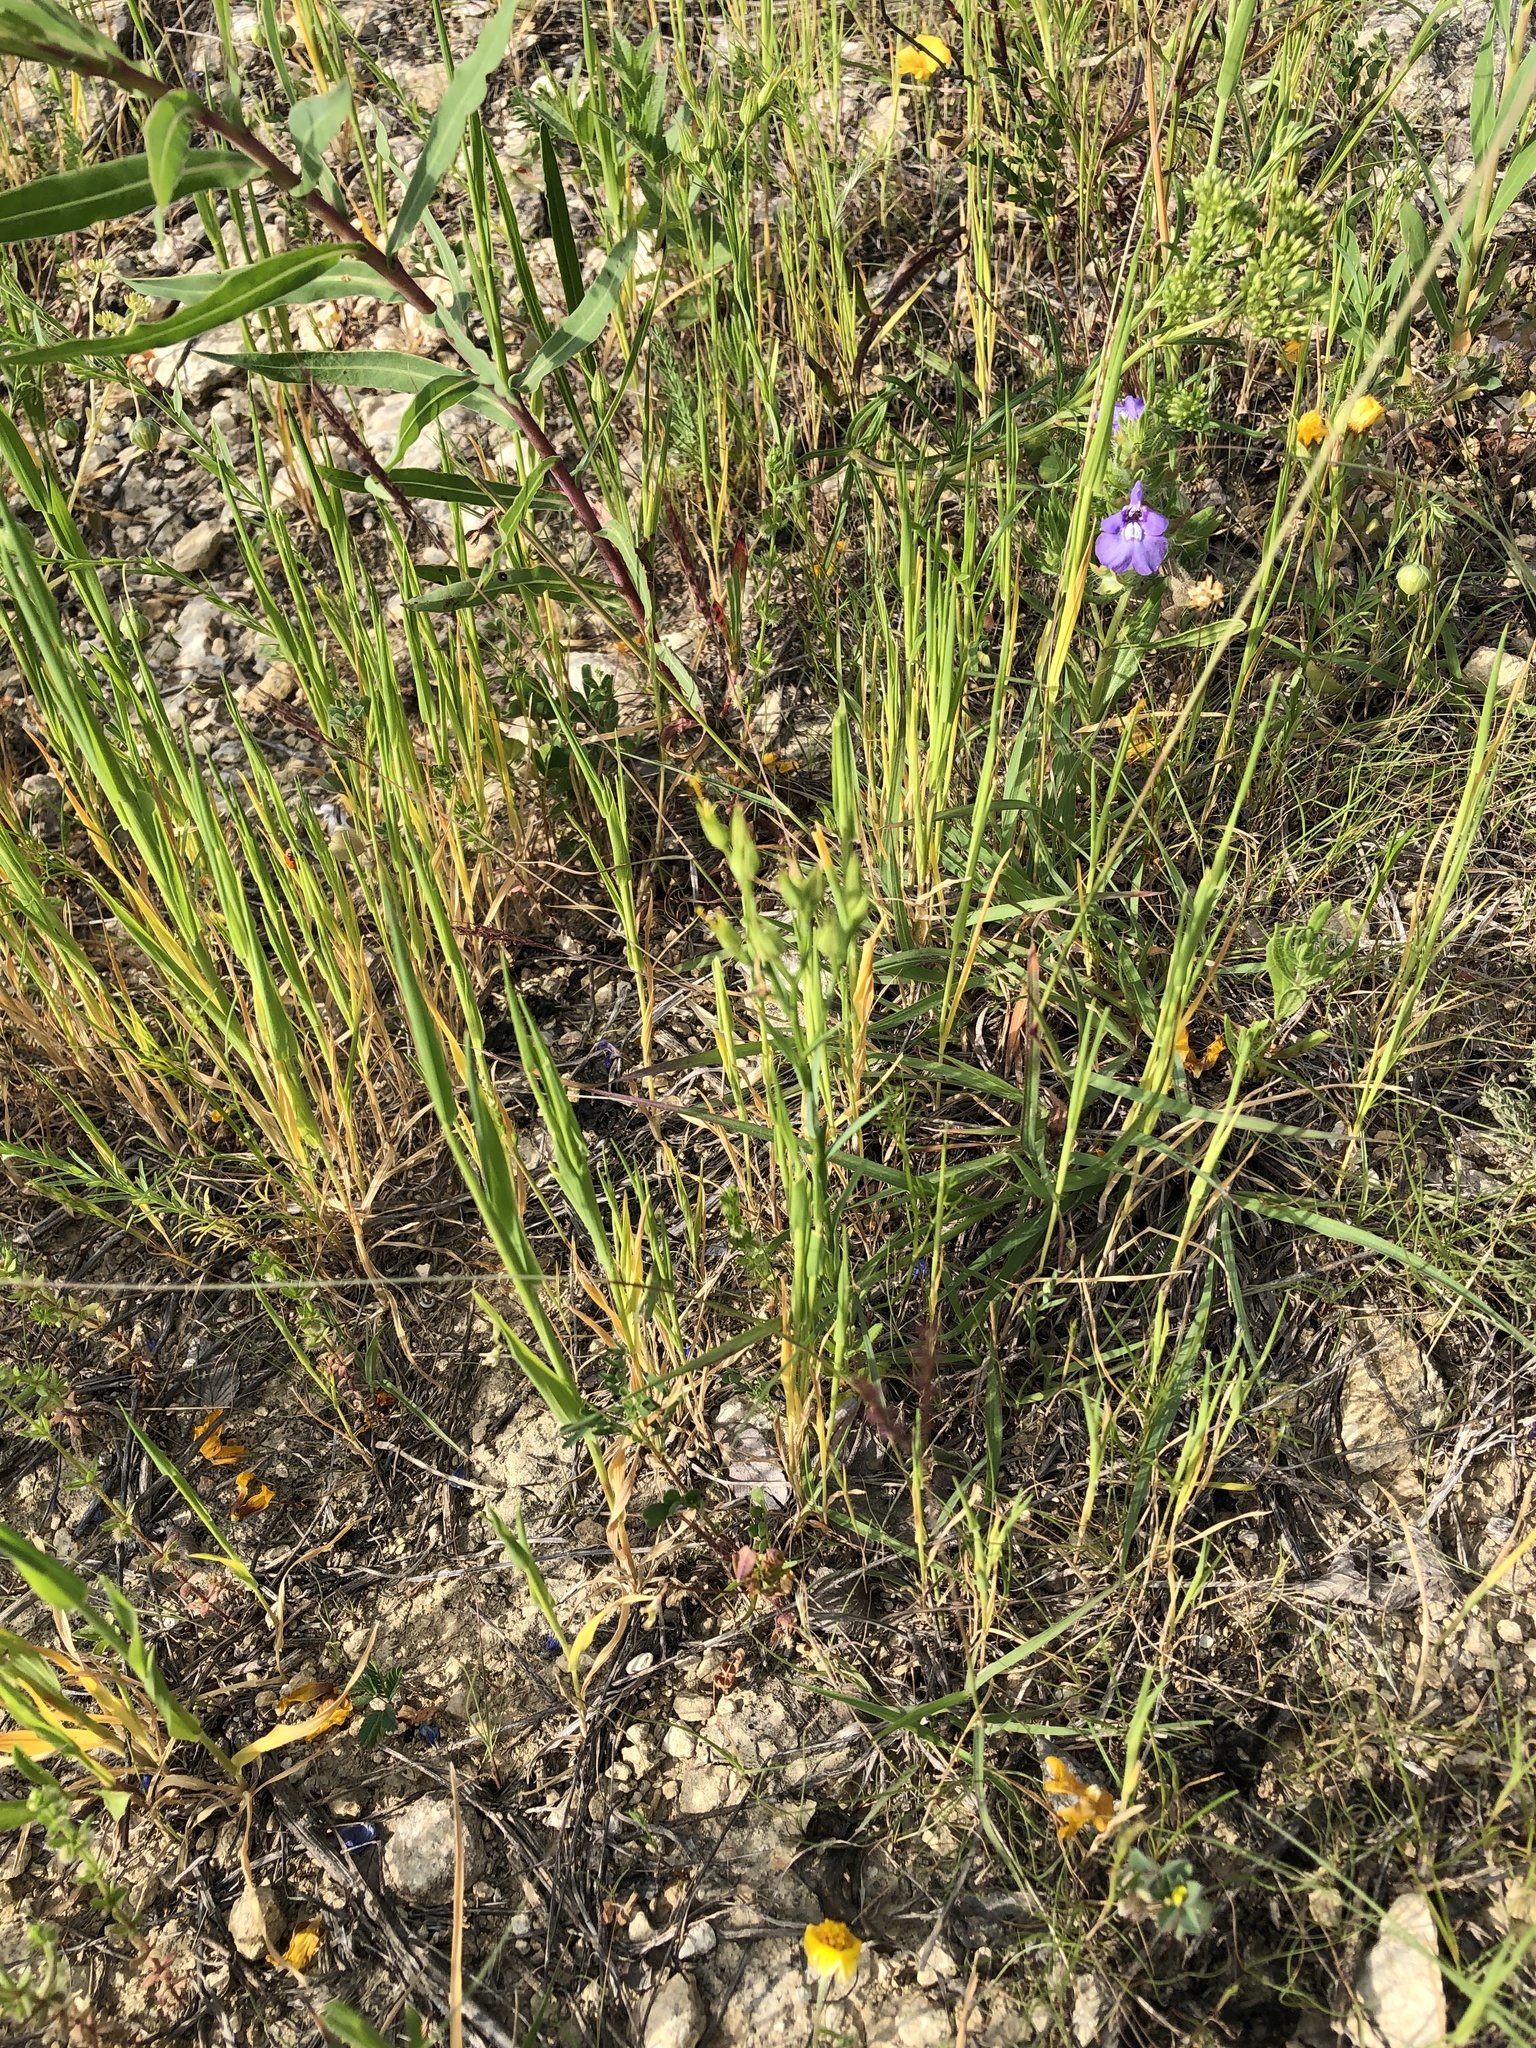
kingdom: Plantae
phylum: Tracheophyta
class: Magnoliopsida
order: Malpighiales
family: Linaceae
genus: Linum
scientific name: Linum rigidum
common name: Stiff-stem flax
